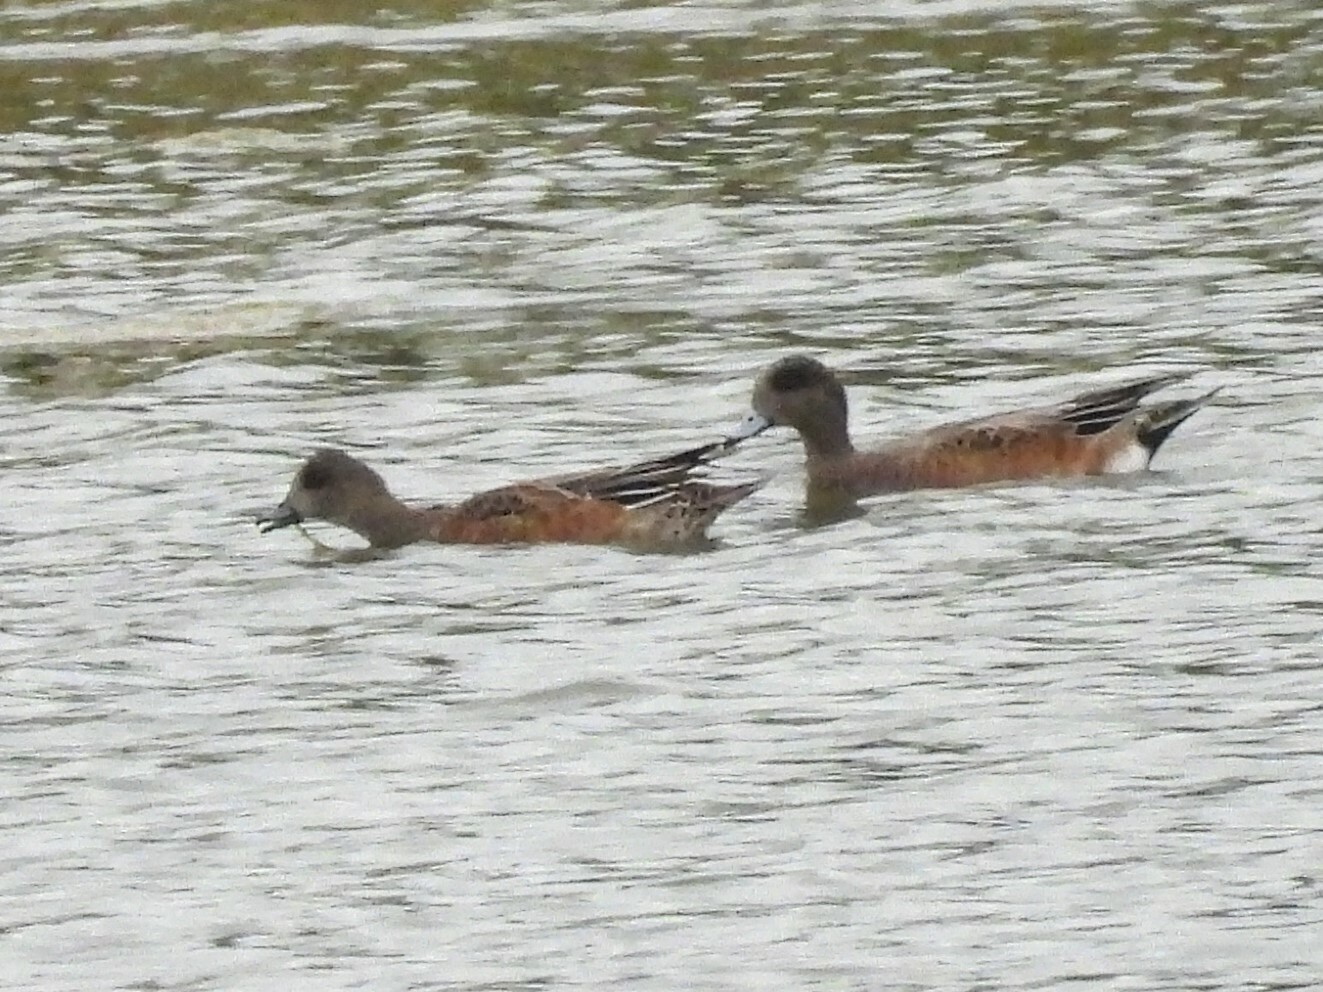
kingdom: Animalia
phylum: Chordata
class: Aves
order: Anseriformes
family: Anatidae
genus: Mareca
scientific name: Mareca americana
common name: American wigeon
